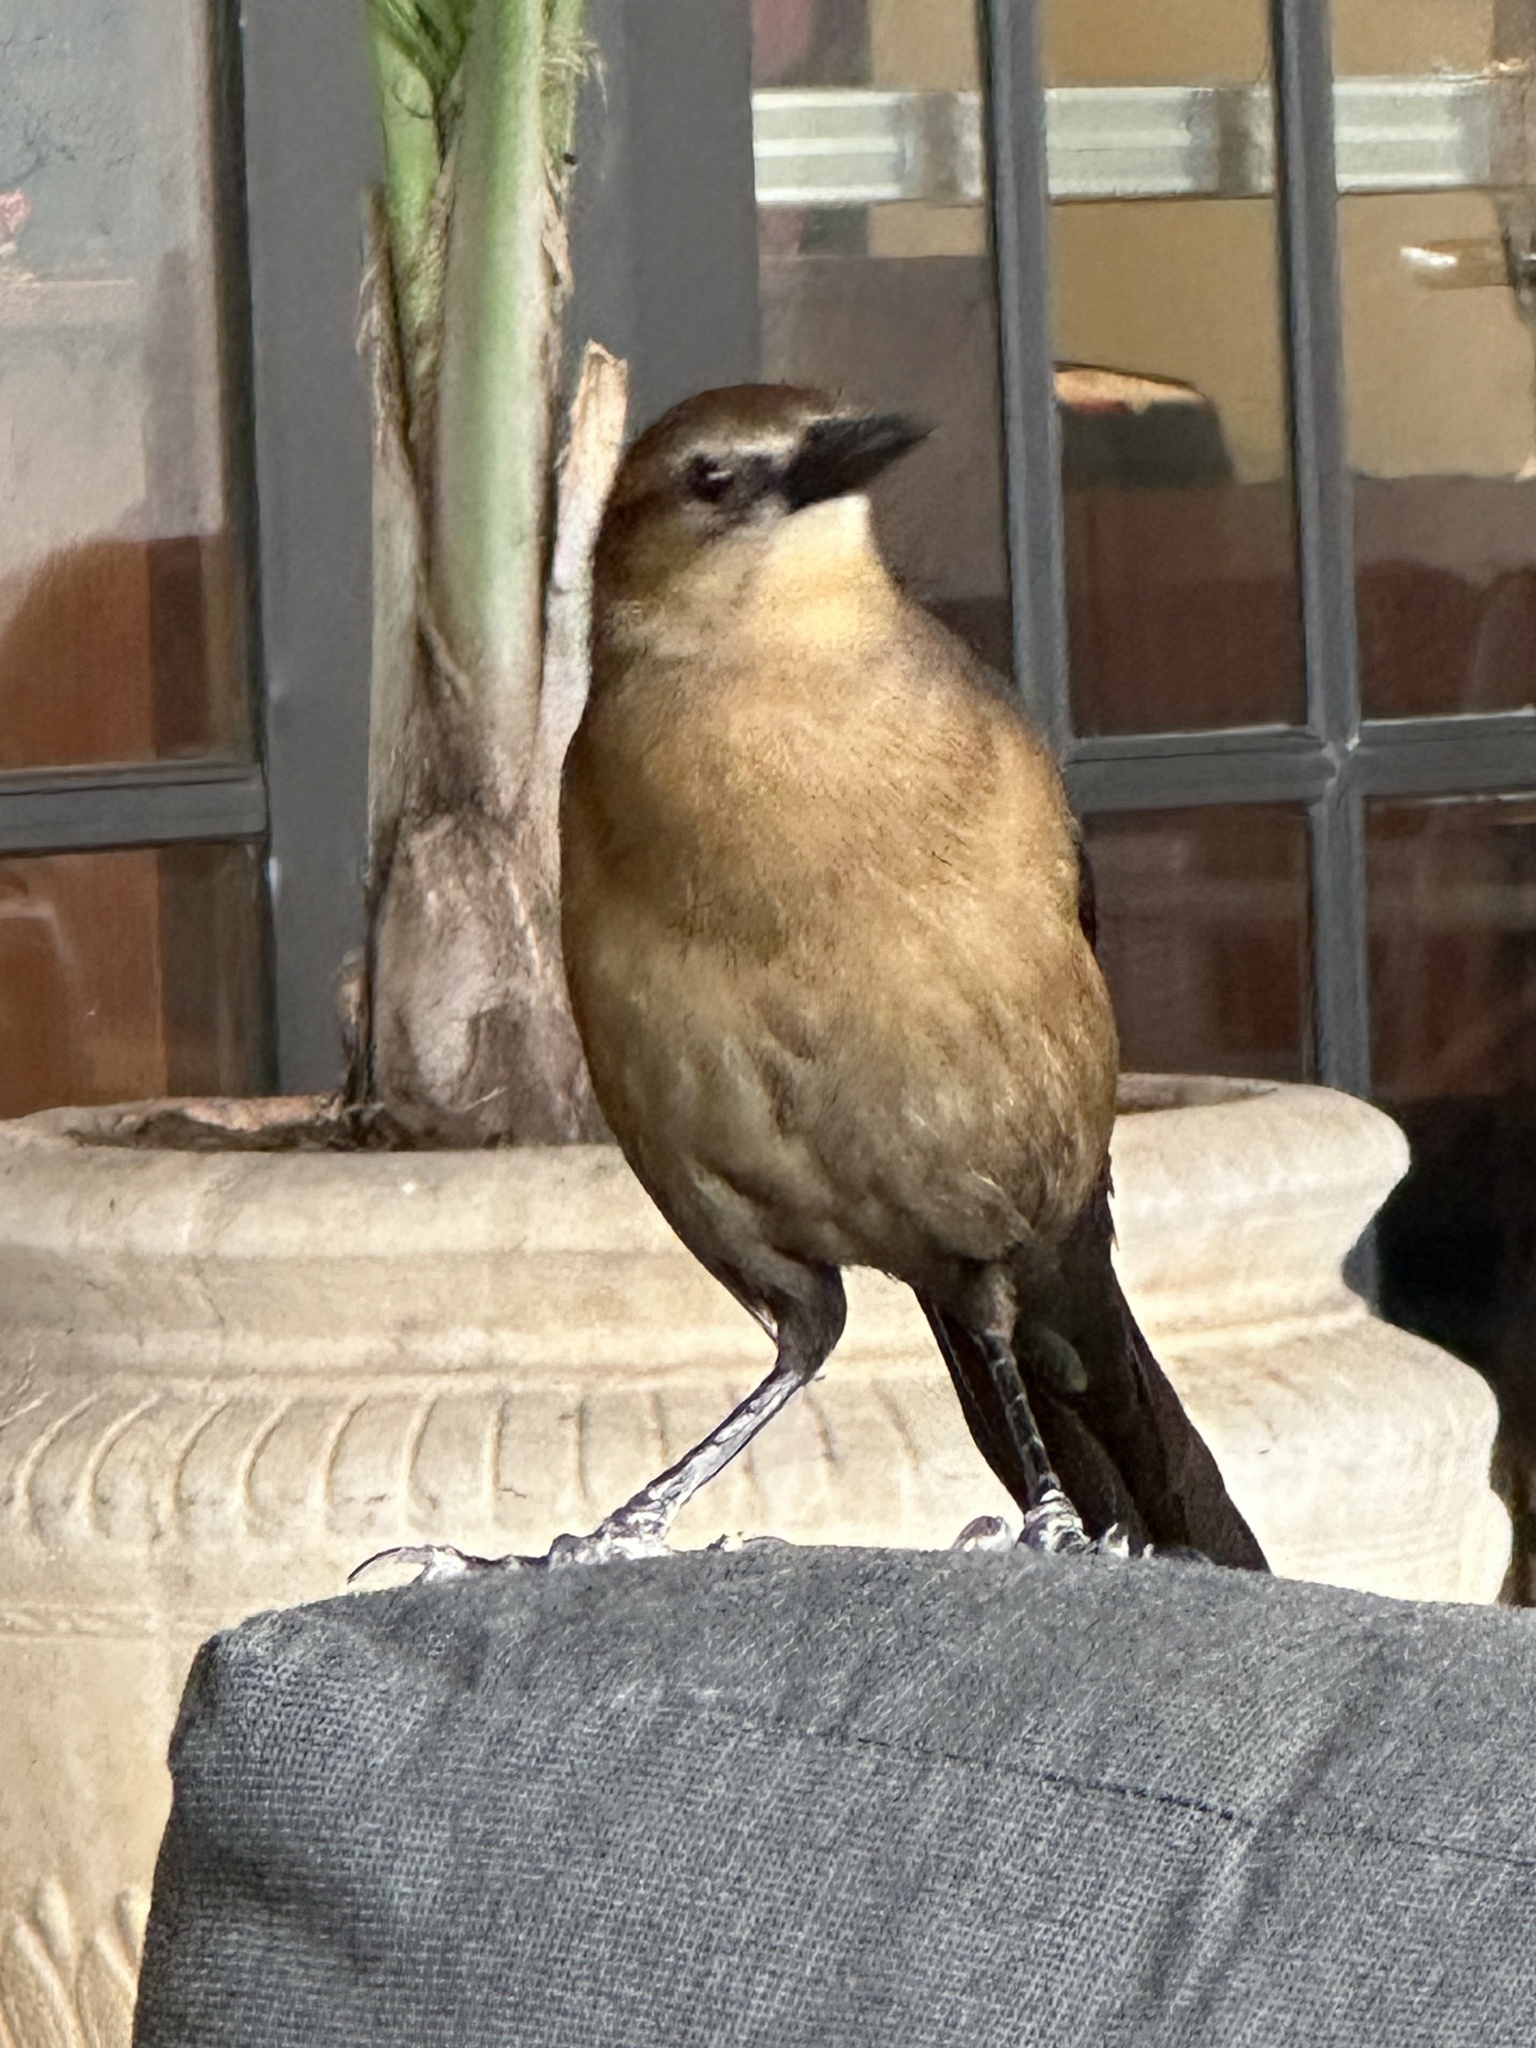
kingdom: Animalia
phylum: Chordata
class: Aves
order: Passeriformes
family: Icteridae
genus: Quiscalus
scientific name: Quiscalus major
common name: Boat-tailed grackle
